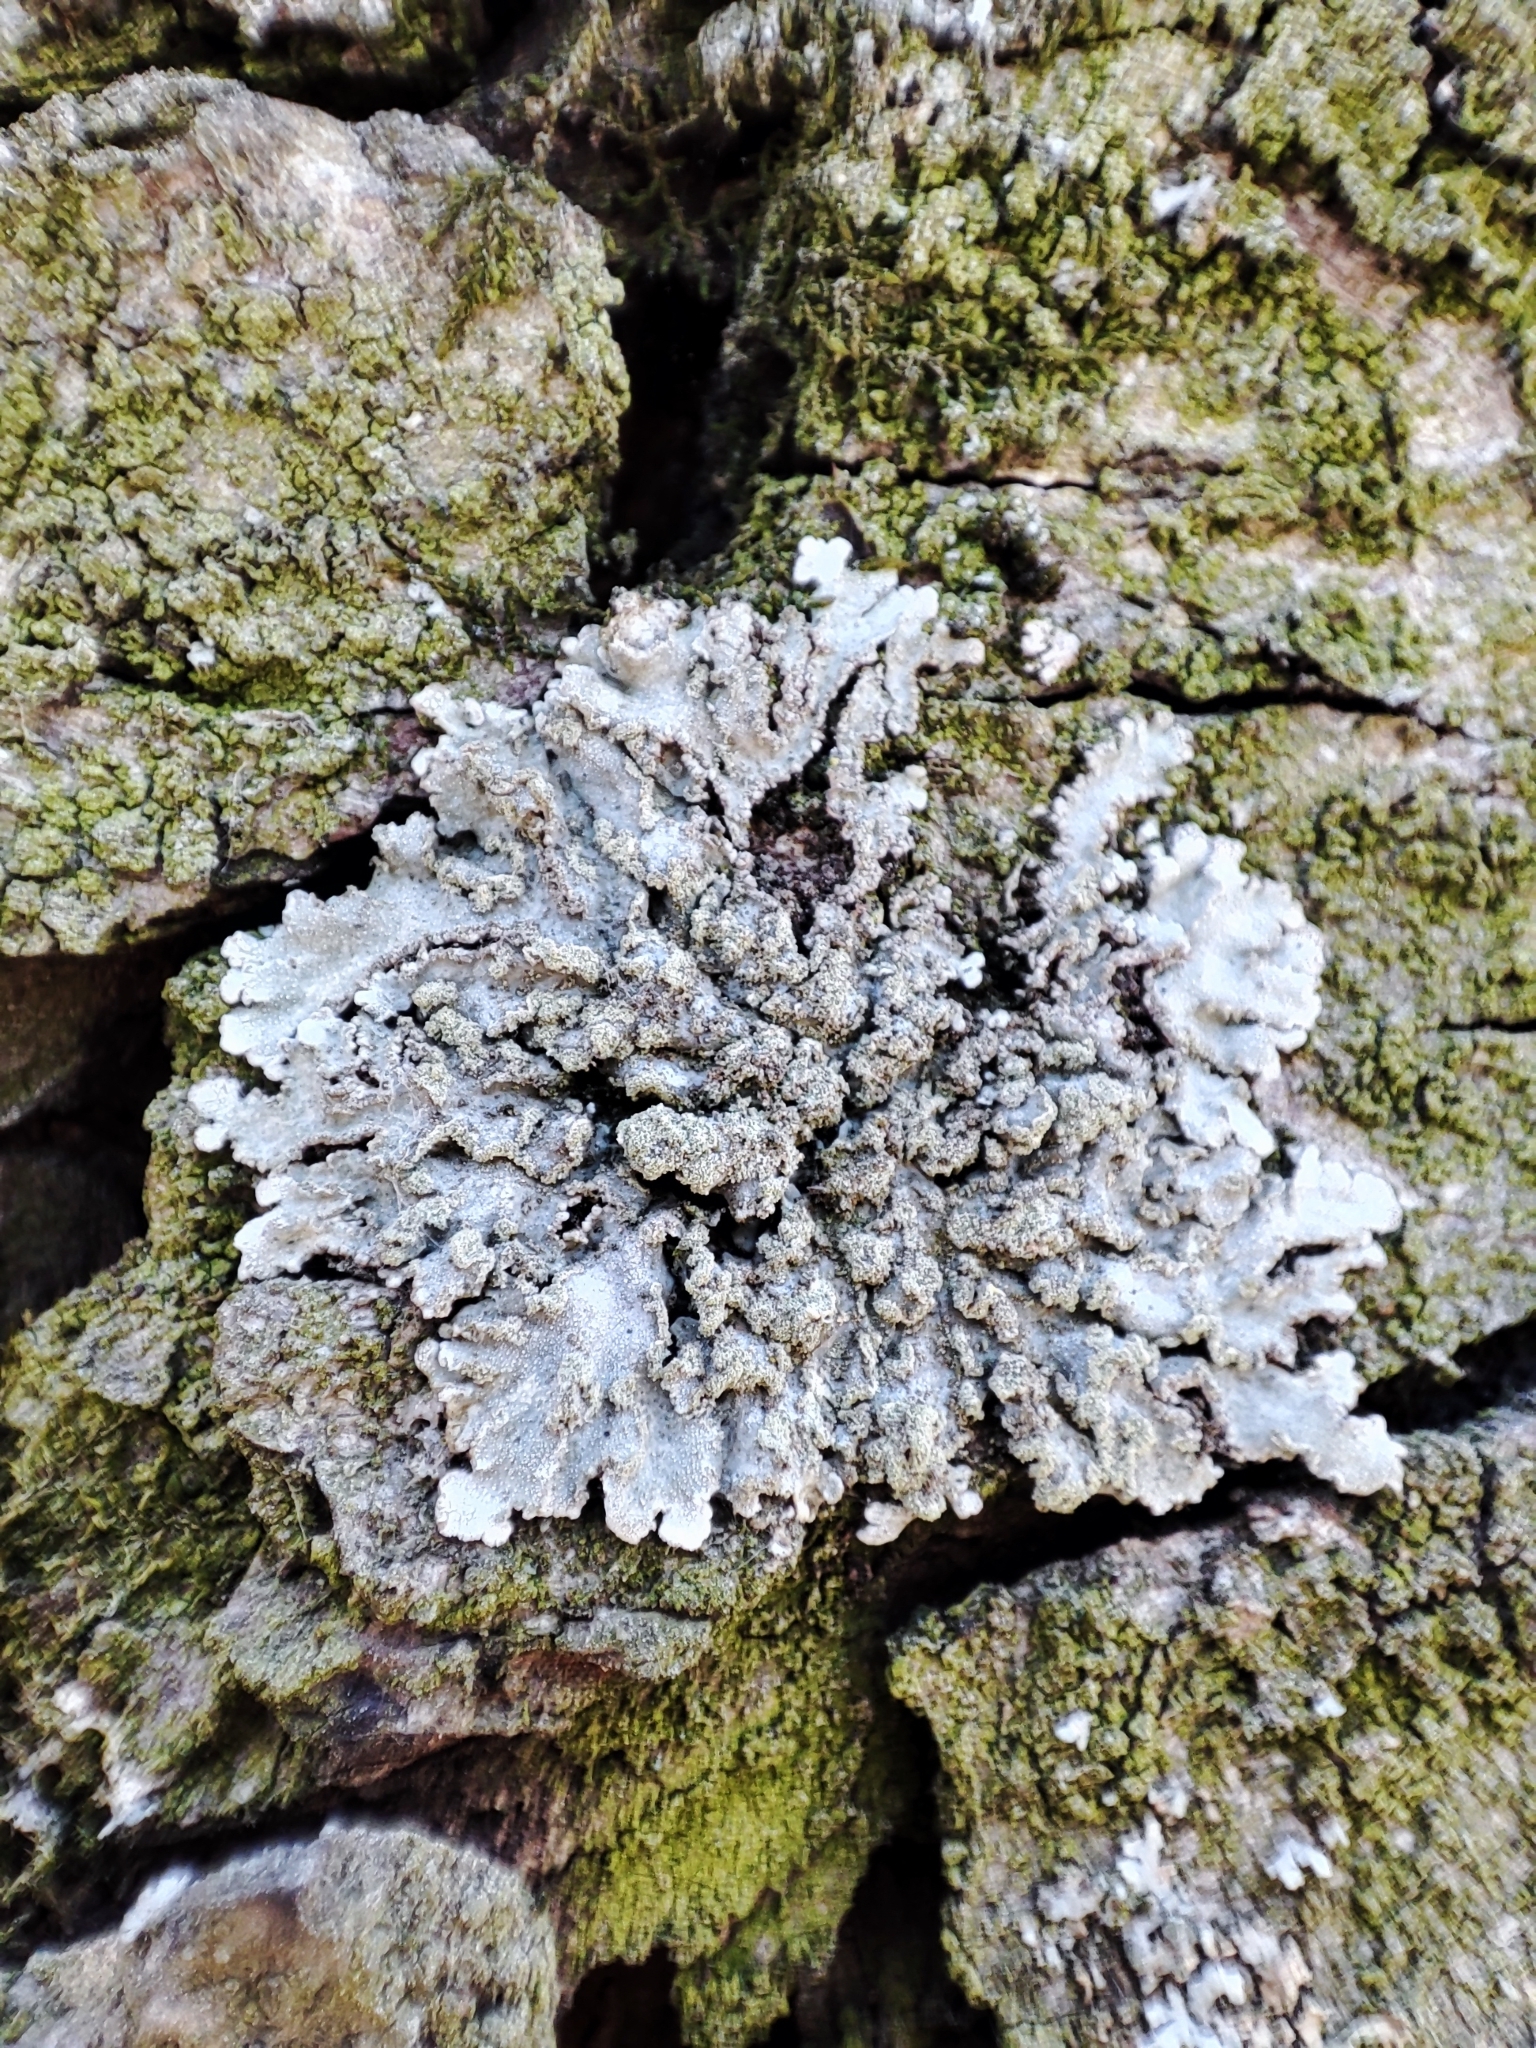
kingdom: Fungi
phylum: Ascomycota
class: Lecanoromycetes
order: Caliciales
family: Physciaceae
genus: Poeltonia
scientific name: Poeltonia grisea
